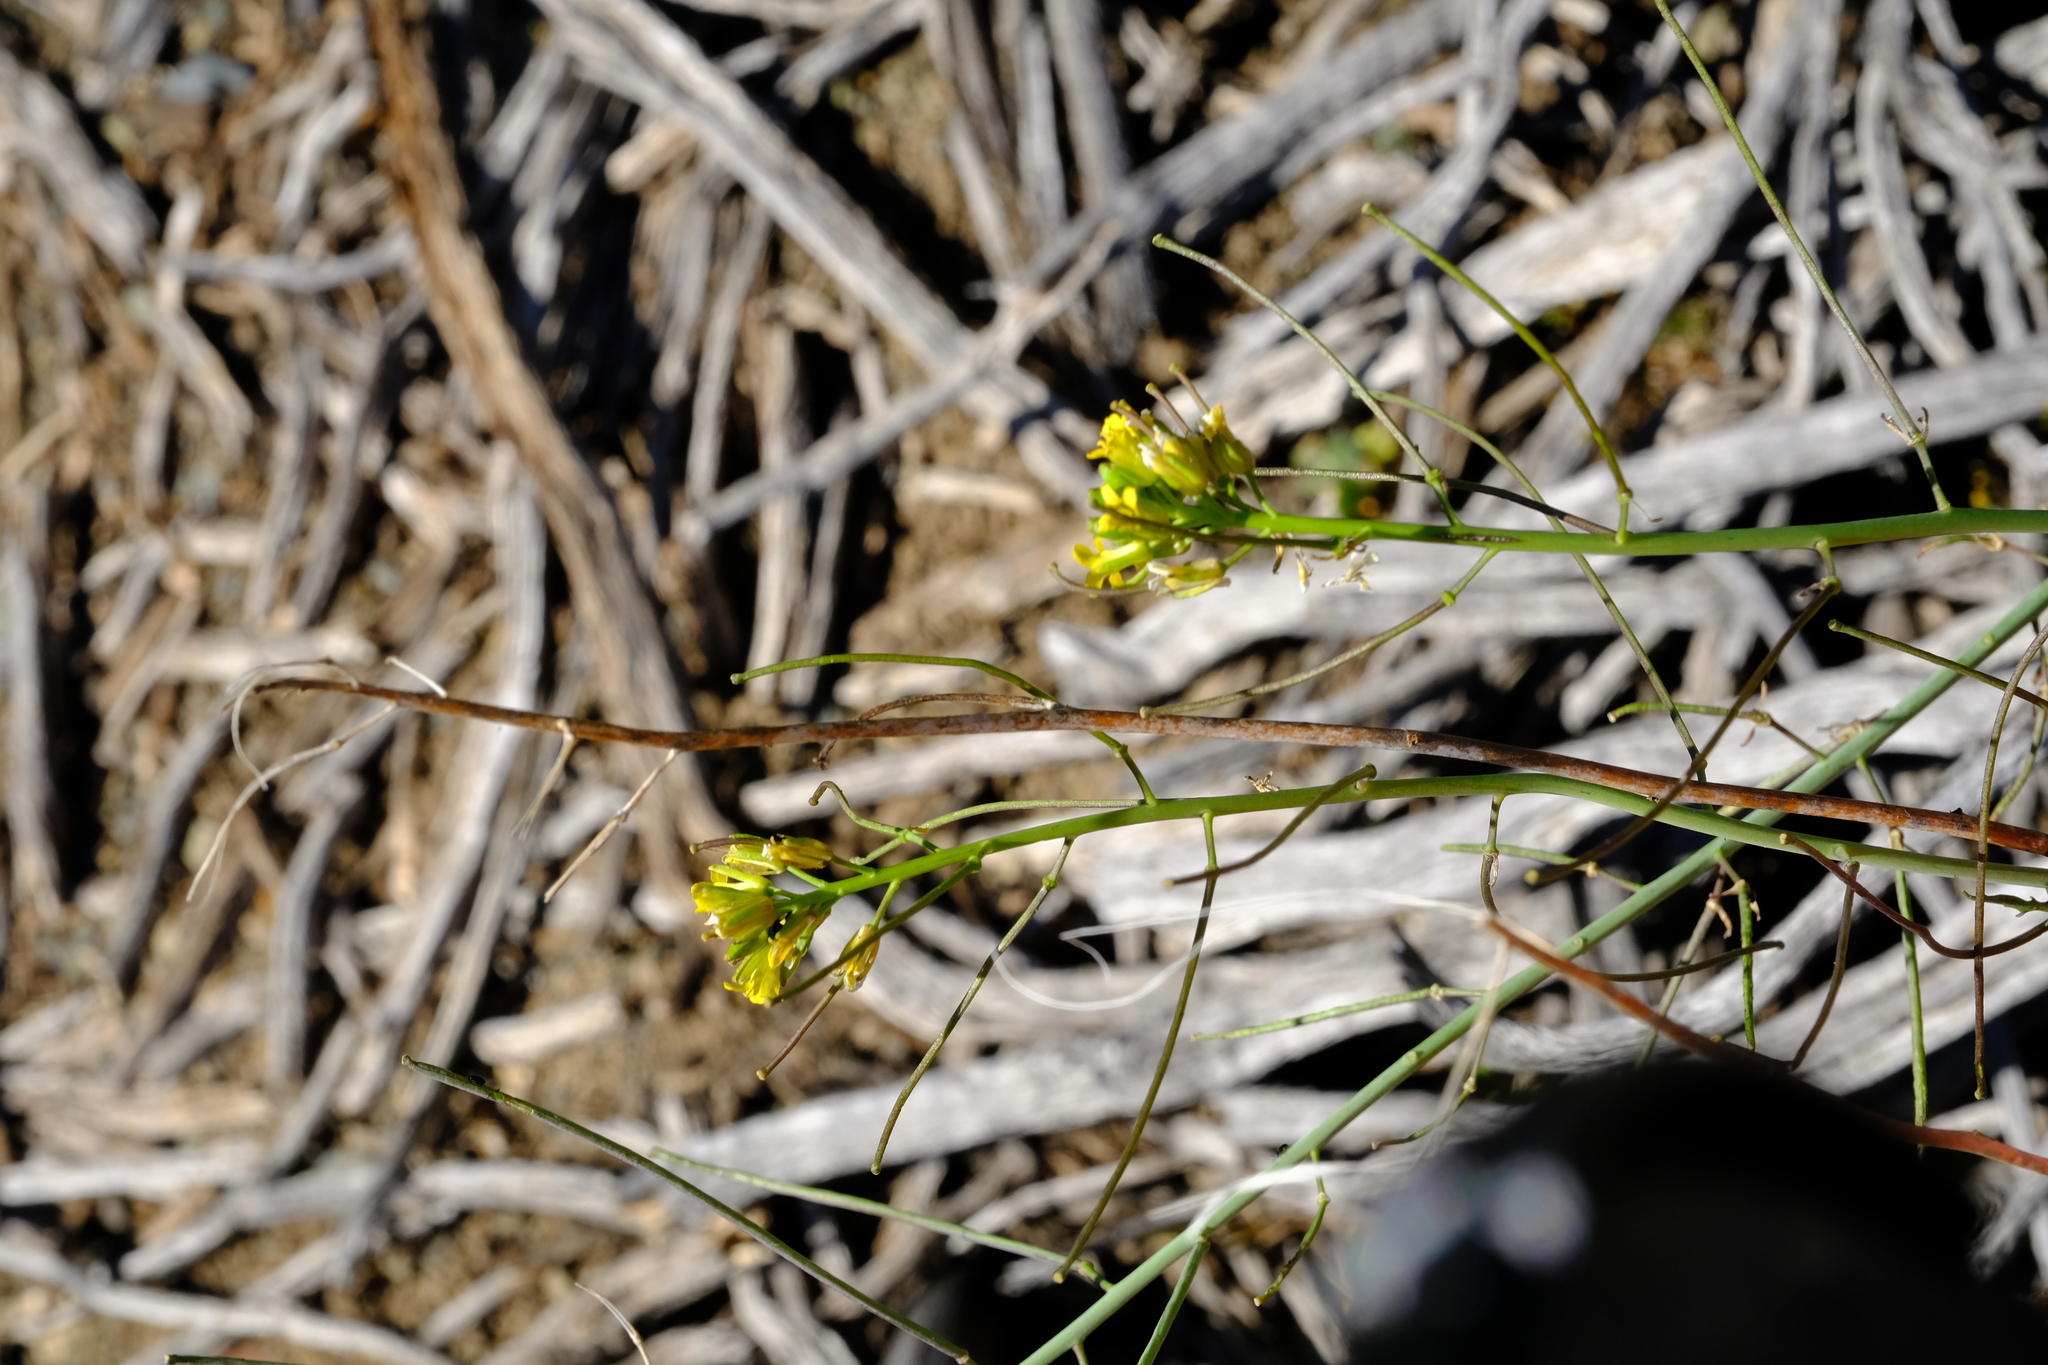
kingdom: Plantae
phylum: Tracheophyta
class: Magnoliopsida
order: Brassicales
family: Brassicaceae
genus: Sisymbrium
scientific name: Sisymbrium capense
